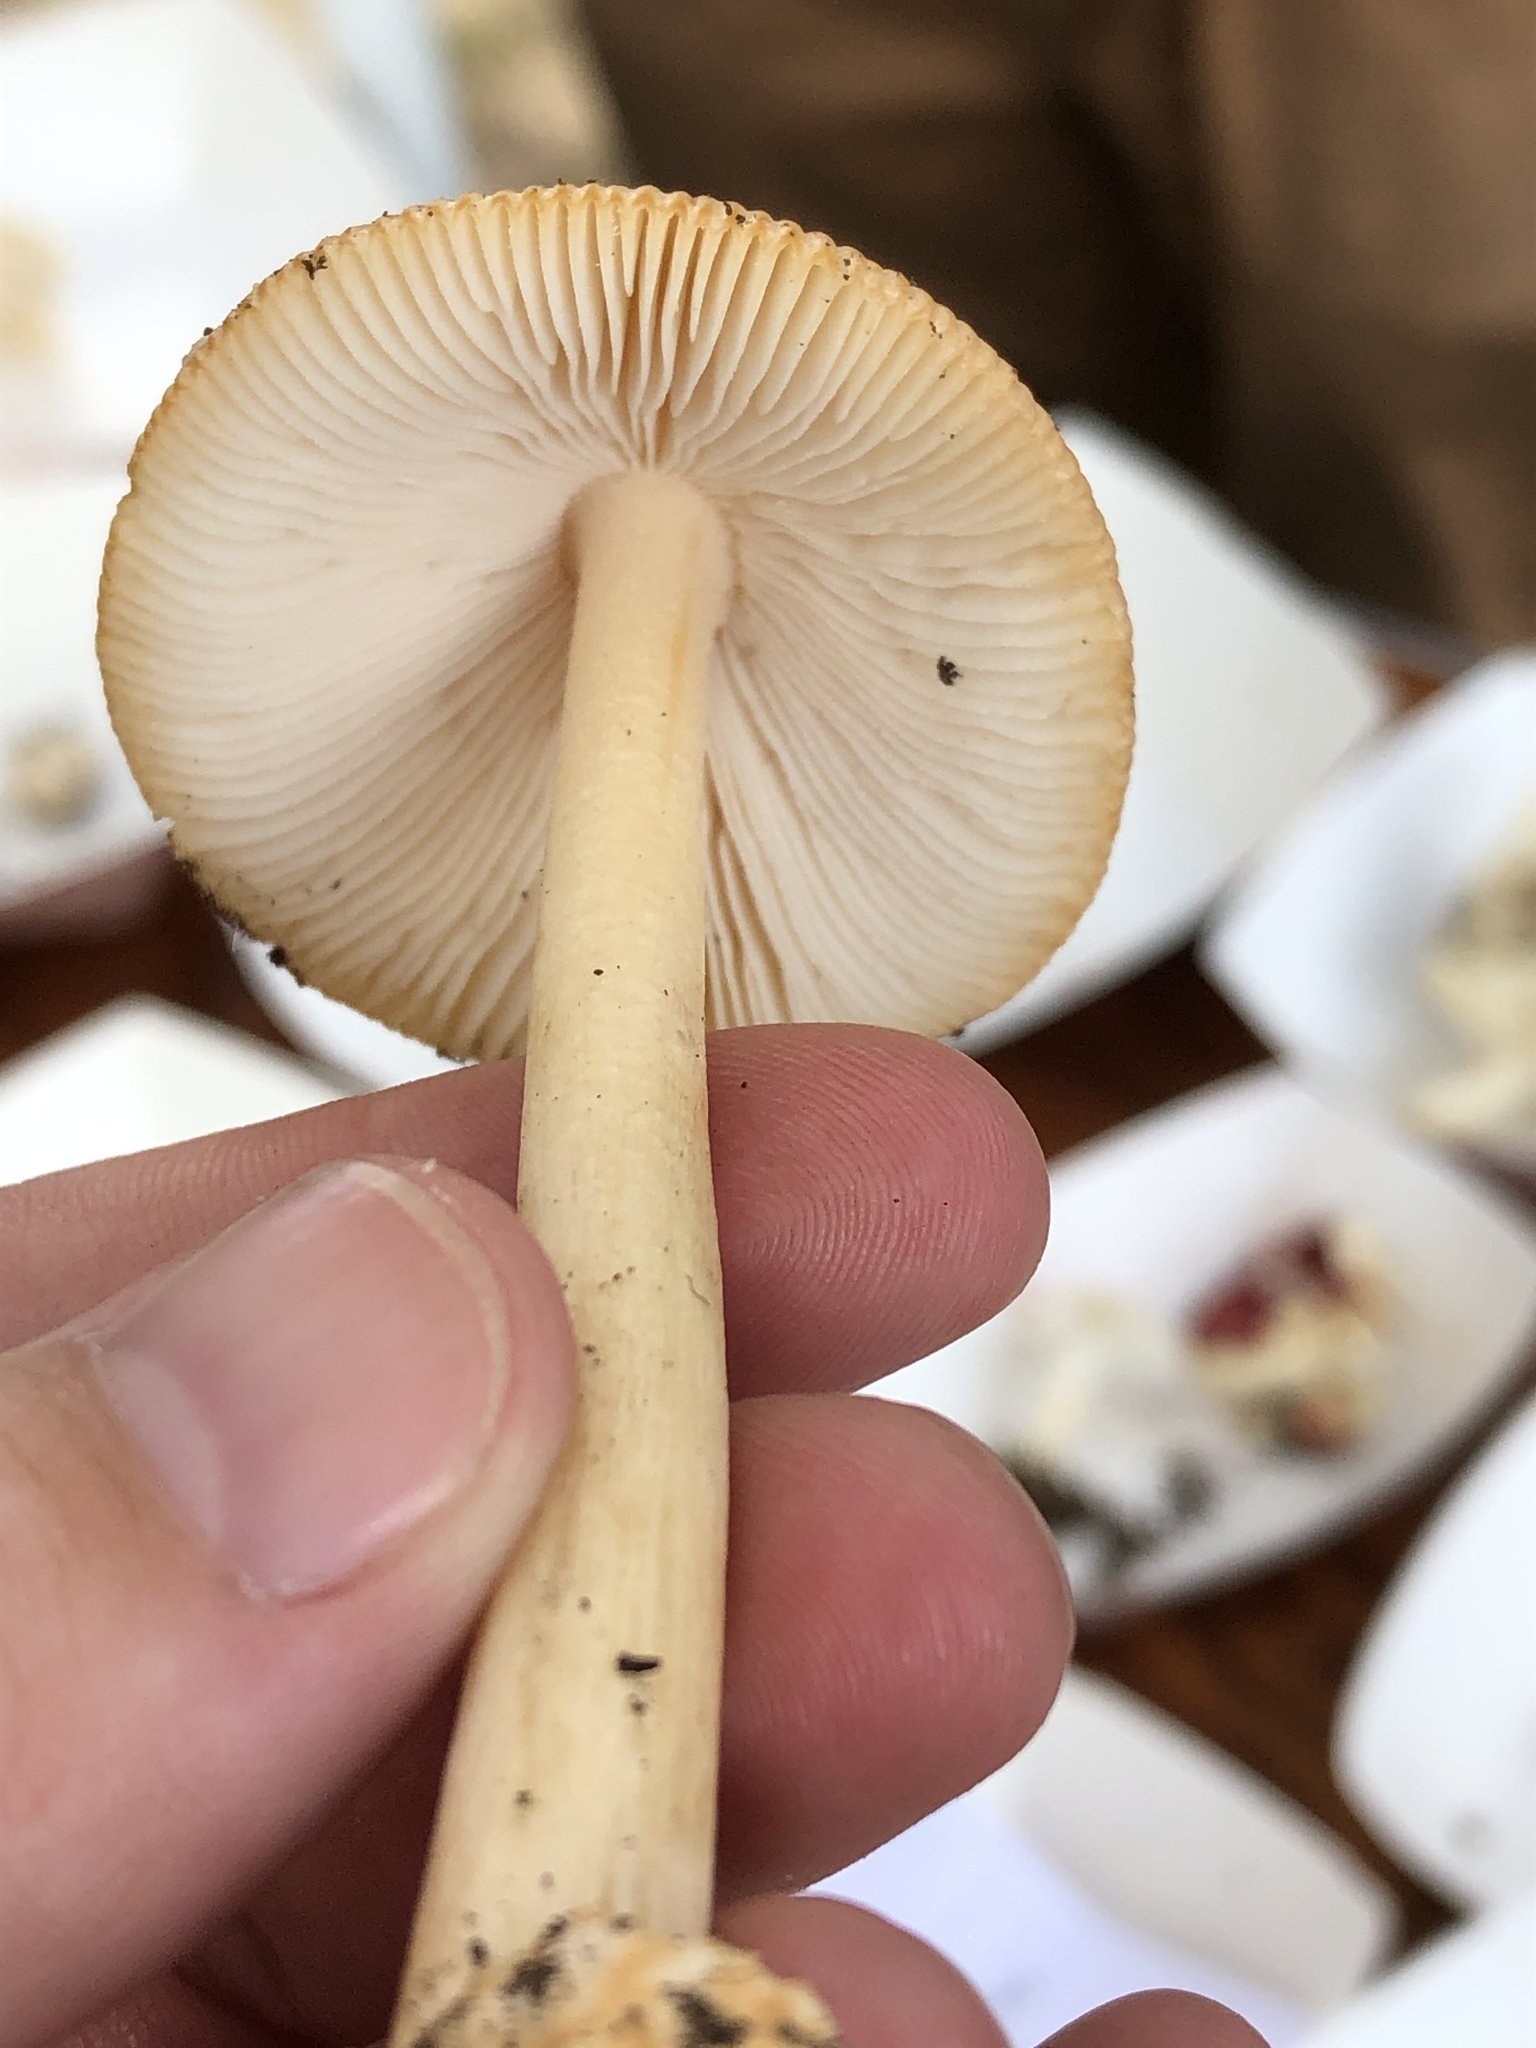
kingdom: Fungi
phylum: Basidiomycota
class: Agaricomycetes
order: Agaricales
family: Amanitaceae
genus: Amanita
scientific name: Amanita fulva
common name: Tawny grisette
